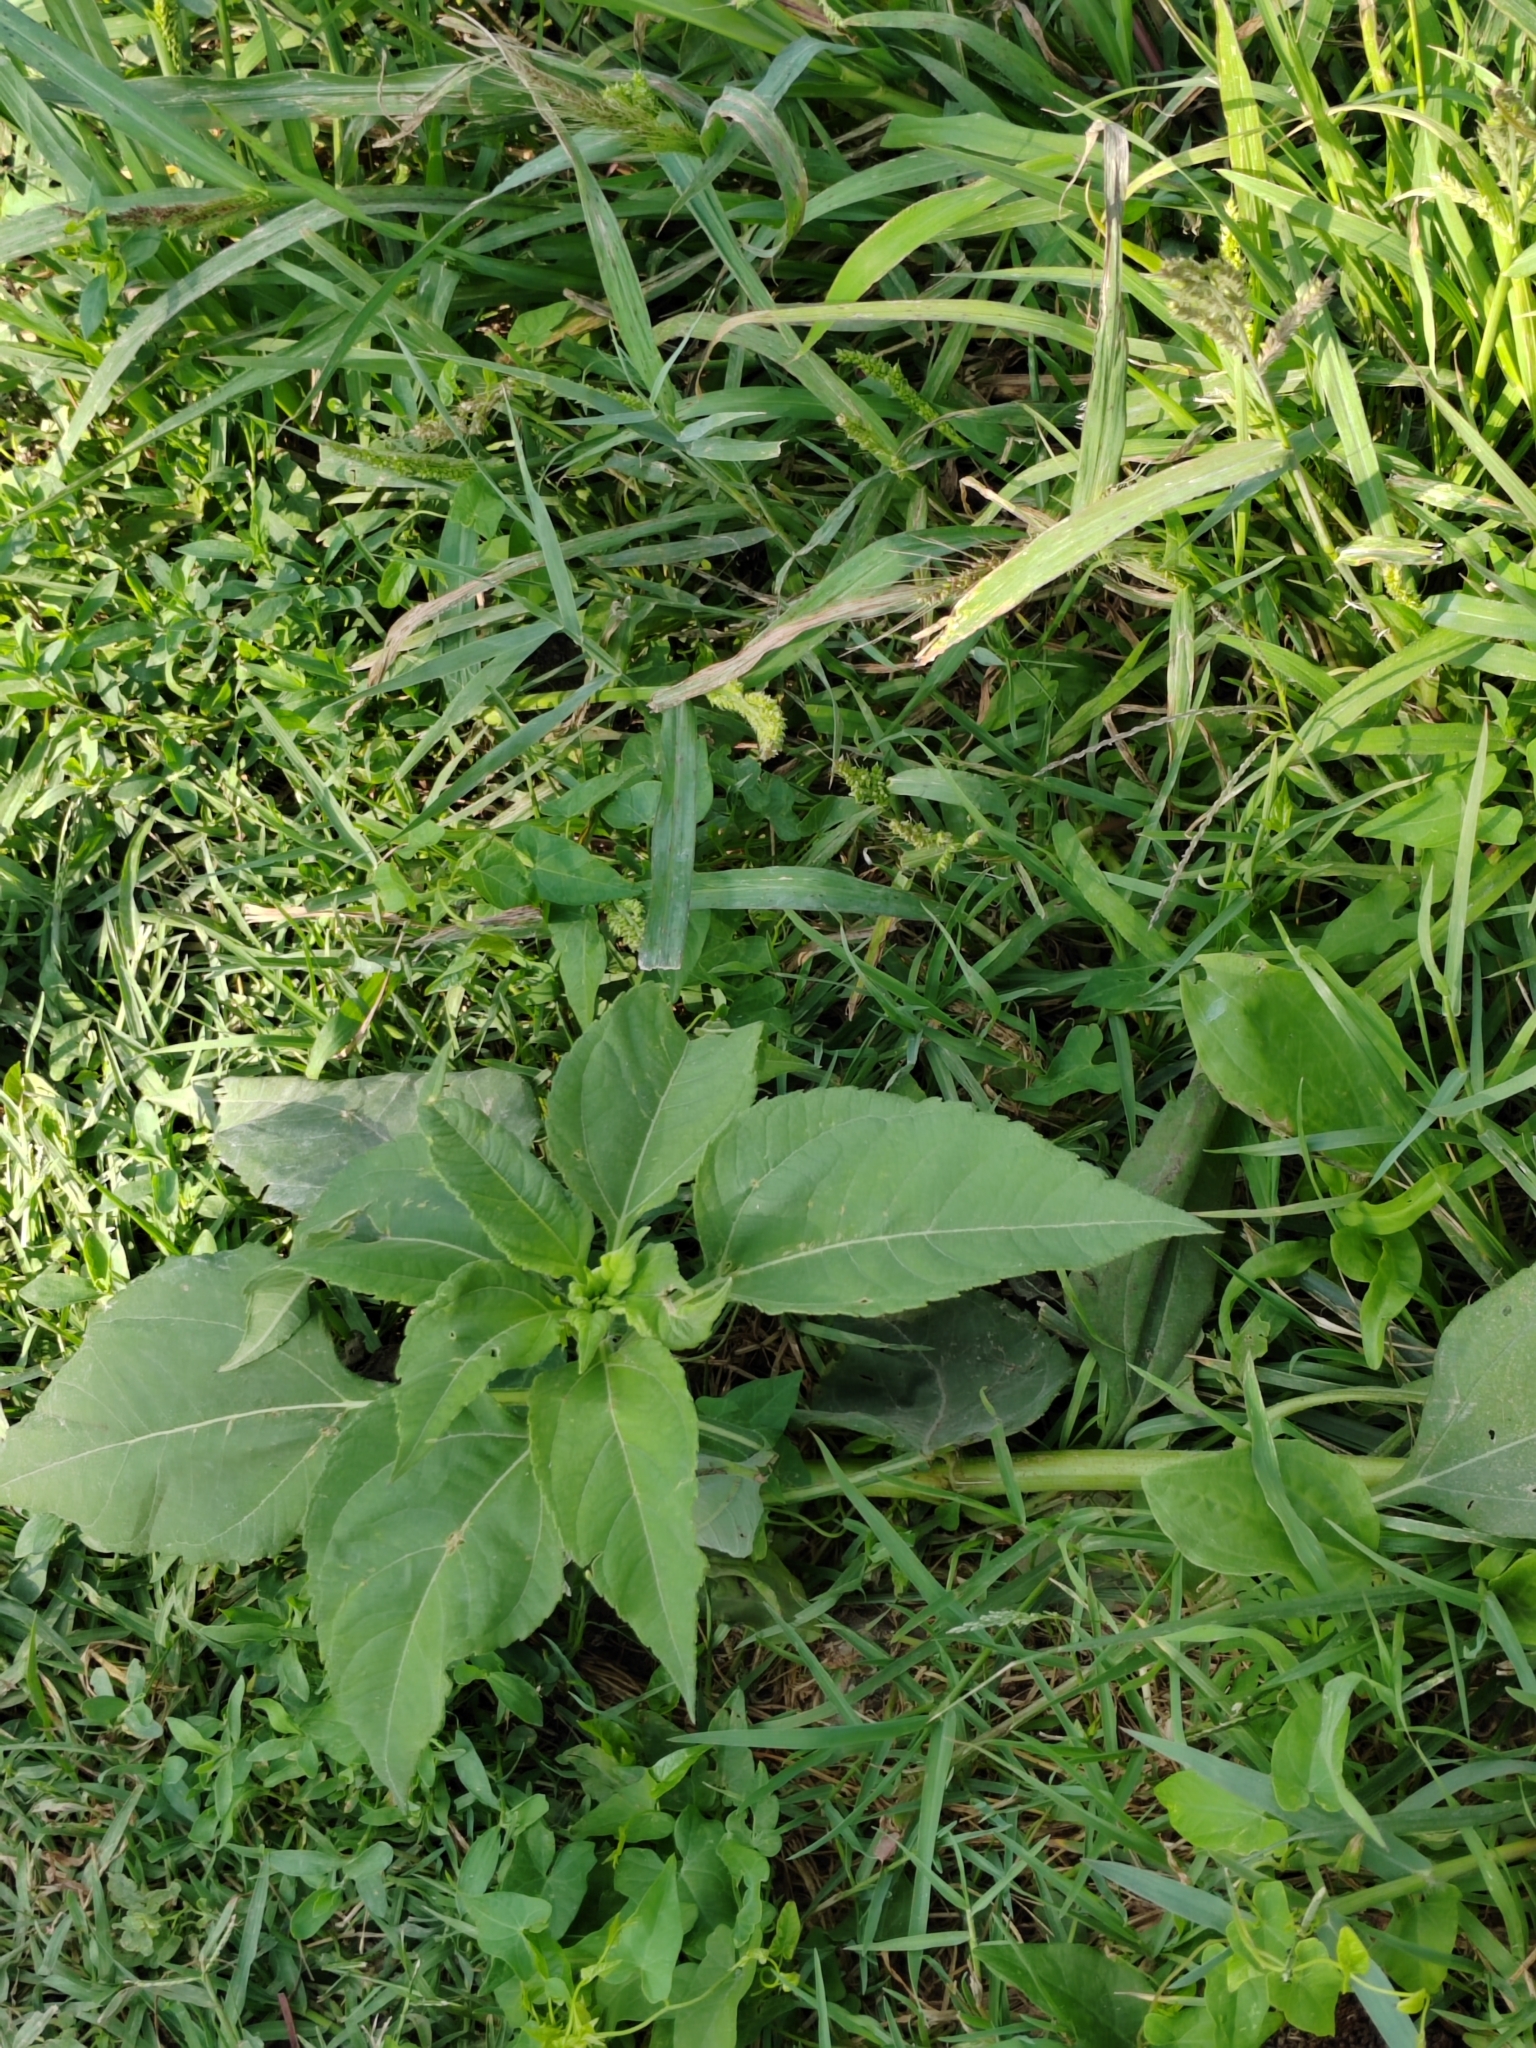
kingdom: Plantae
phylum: Tracheophyta
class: Magnoliopsida
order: Asterales
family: Asteraceae
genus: Helianthus
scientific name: Helianthus annuus
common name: Sunflower
